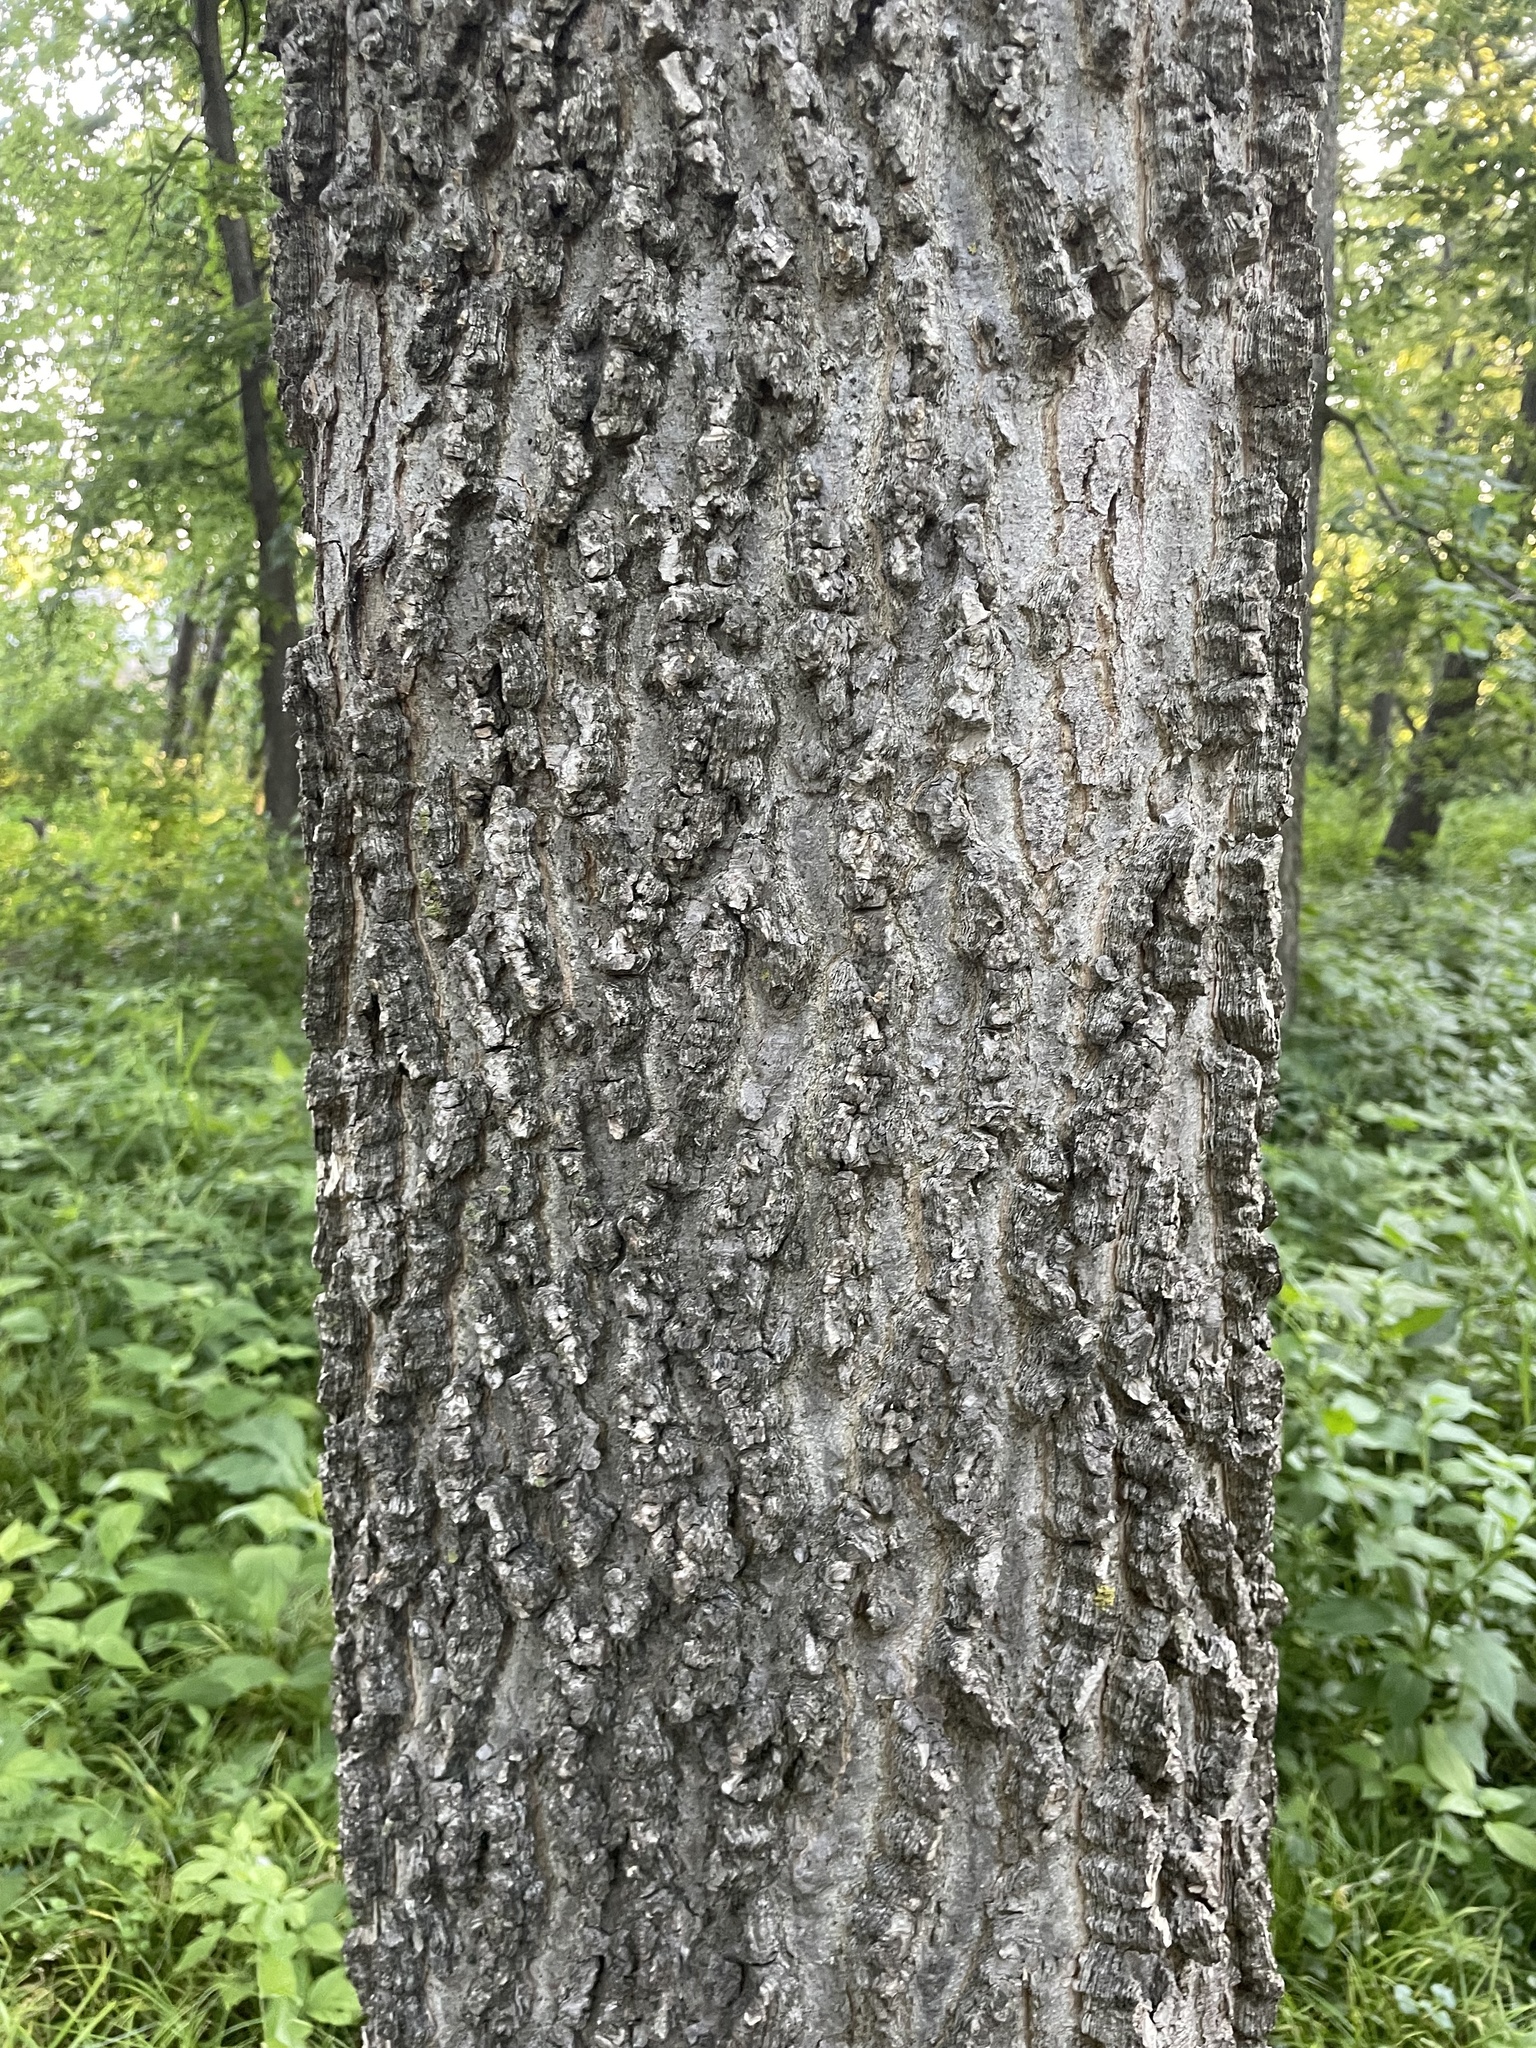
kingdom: Plantae
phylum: Tracheophyta
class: Magnoliopsida
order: Rosales
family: Cannabaceae
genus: Celtis
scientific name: Celtis occidentalis
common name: Common hackberry
